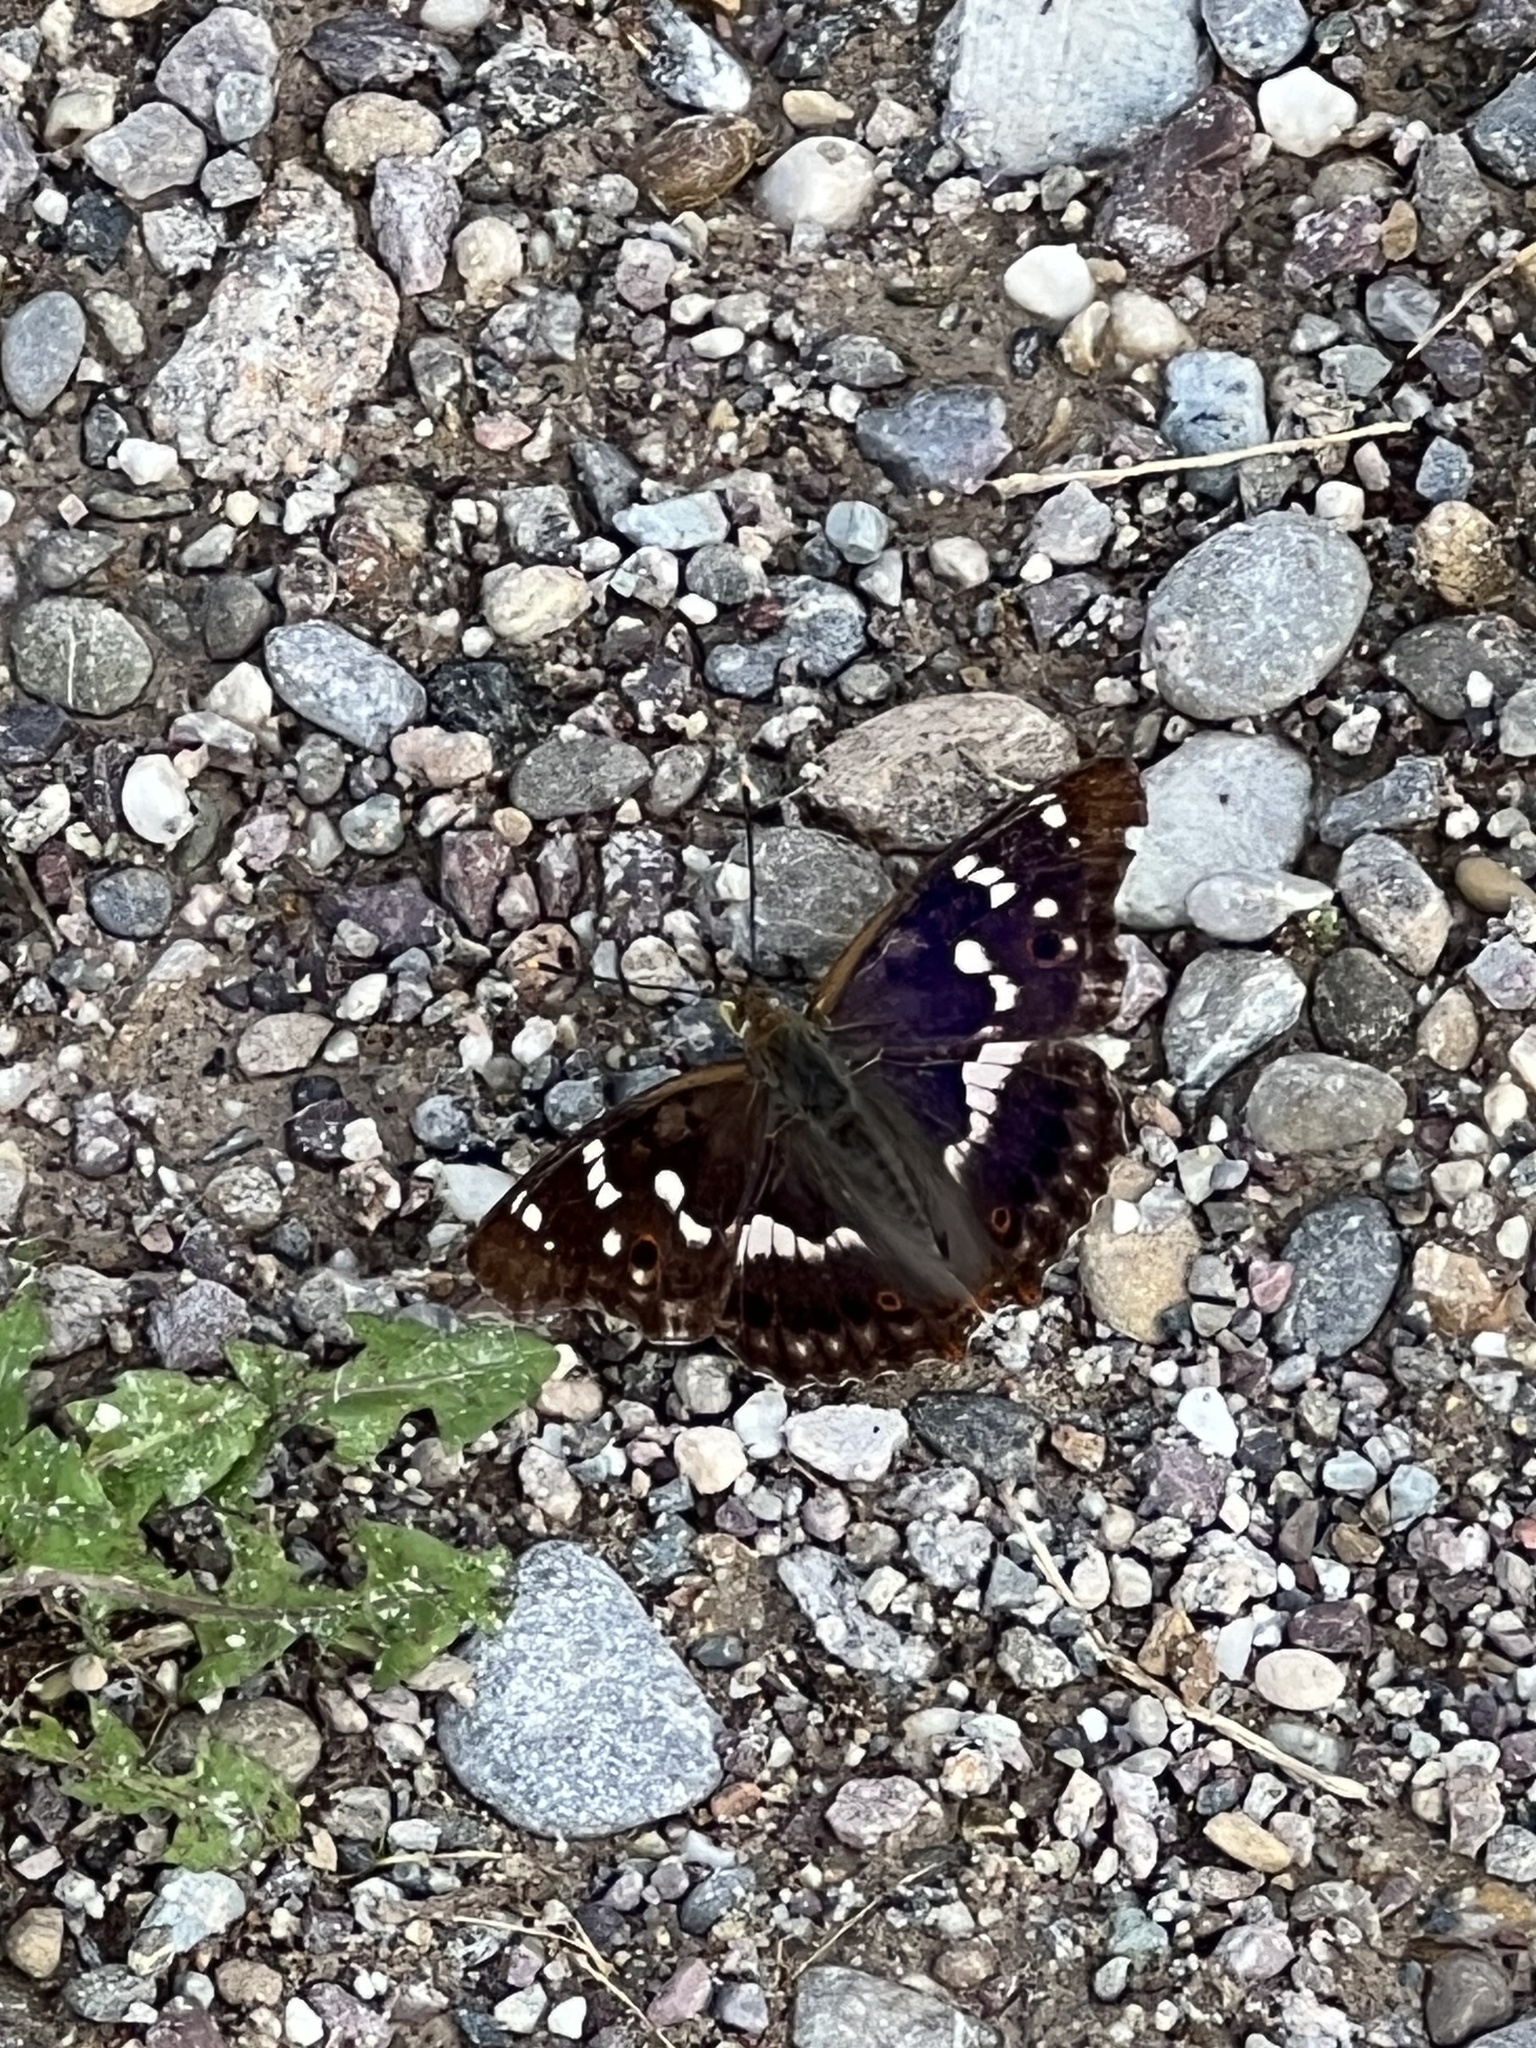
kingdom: Animalia
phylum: Arthropoda
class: Insecta
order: Lepidoptera
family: Nymphalidae
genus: Apatura
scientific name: Apatura ilia
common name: Lesser purple emperor
